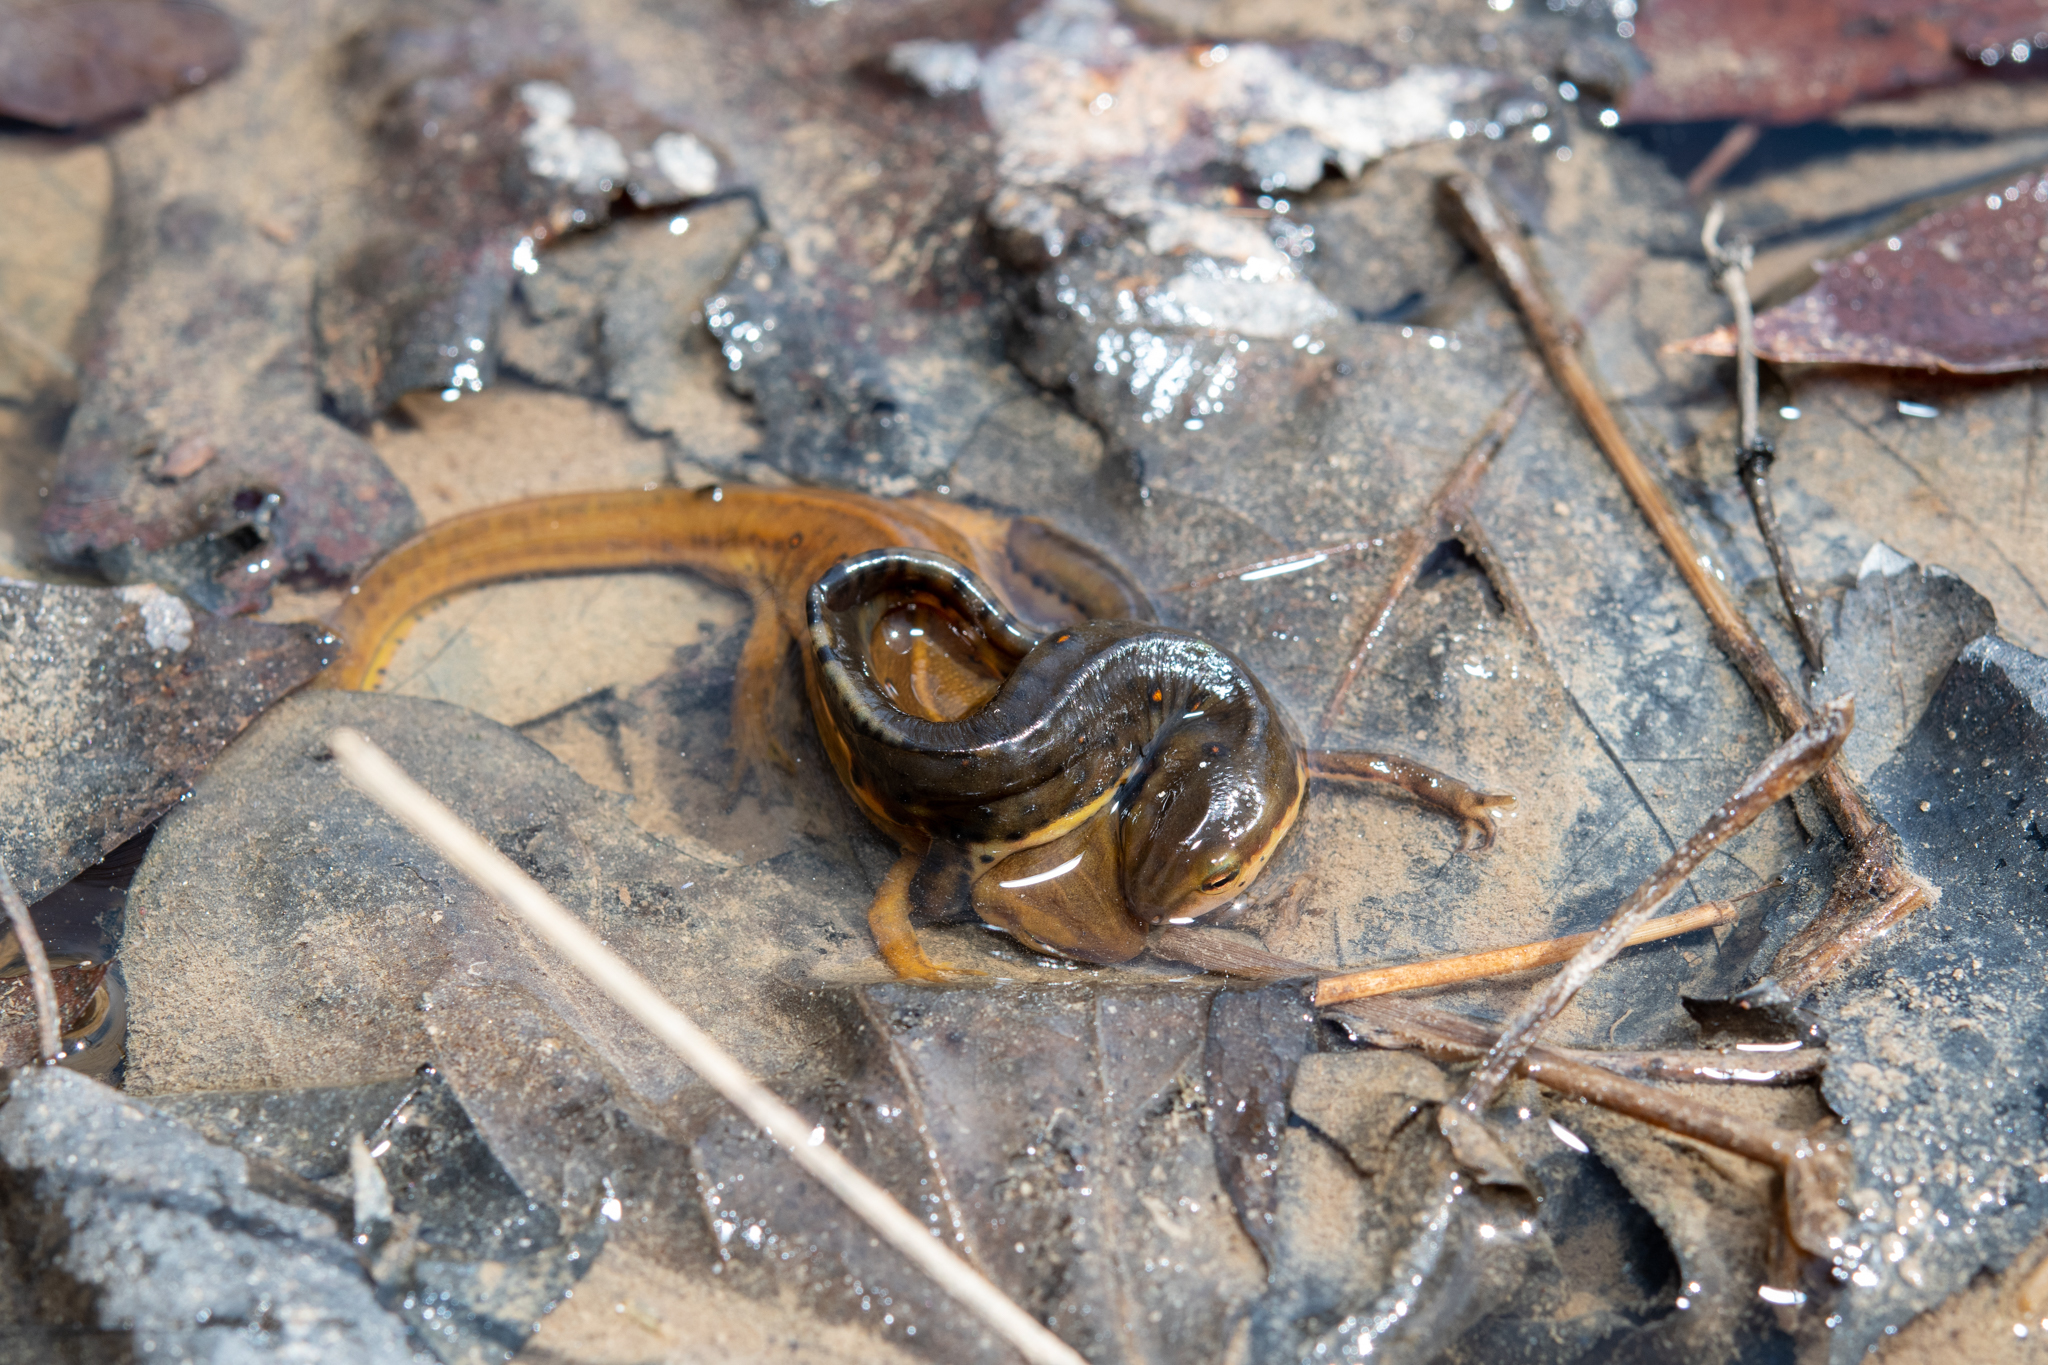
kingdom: Animalia
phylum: Chordata
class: Amphibia
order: Caudata
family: Salamandridae
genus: Notophthalmus
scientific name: Notophthalmus viridescens
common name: Eastern newt
